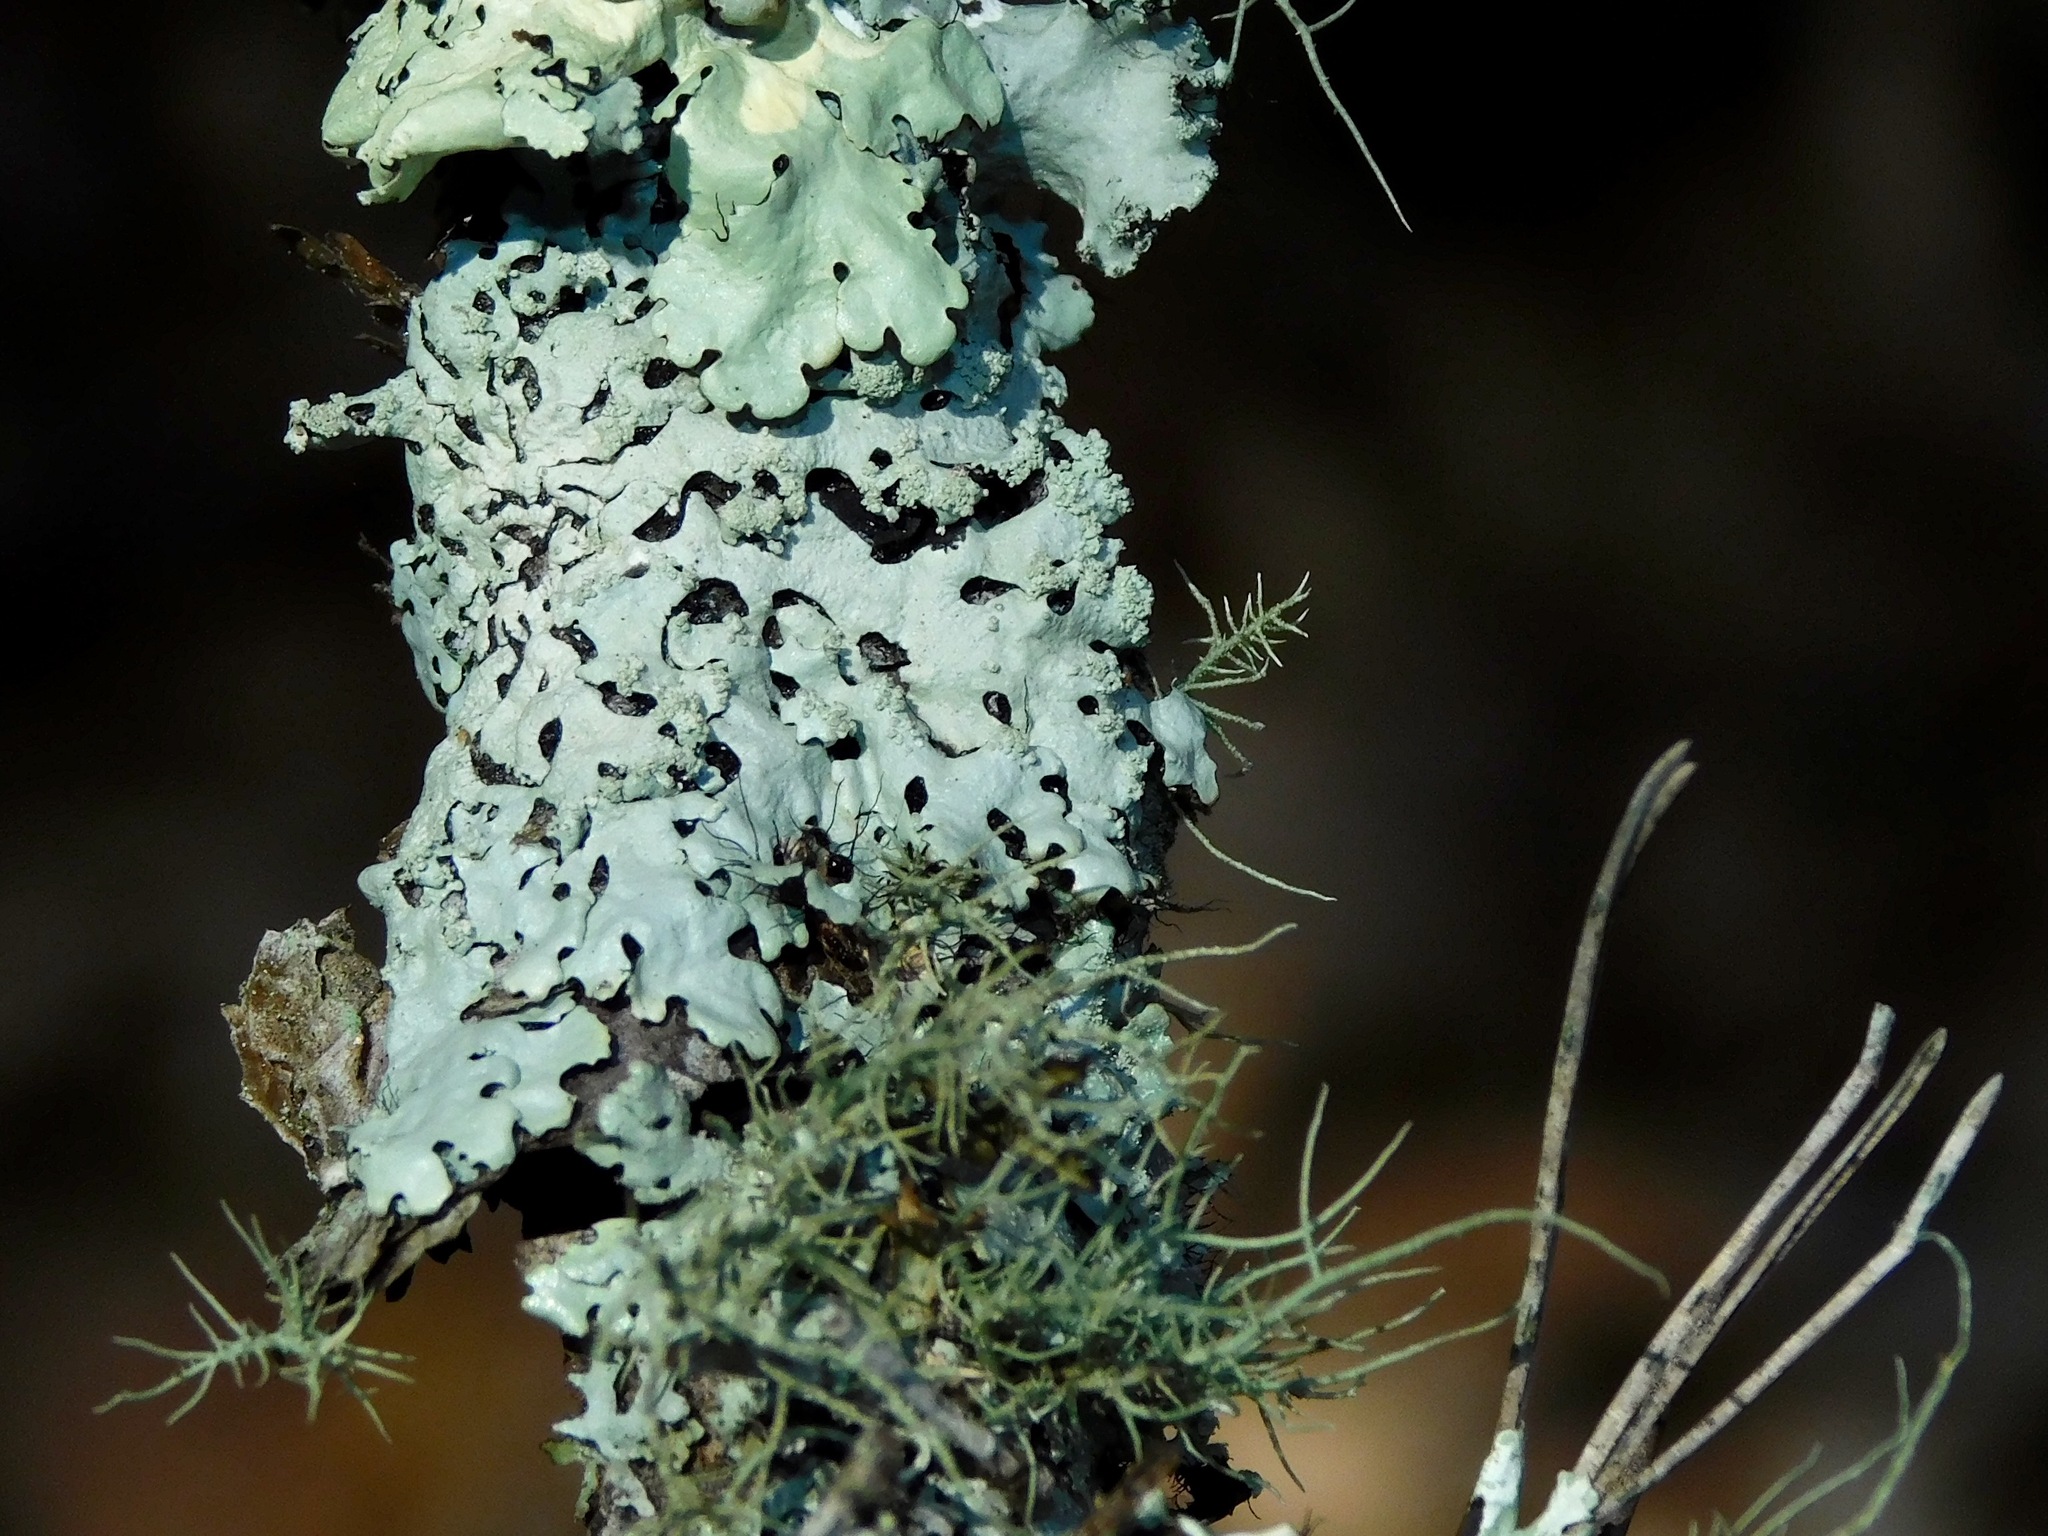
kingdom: Fungi
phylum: Ascomycota
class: Lecanoromycetes
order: Lecanorales
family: Parmeliaceae
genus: Hypotrachyna
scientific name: Hypotrachyna croceopustulata
